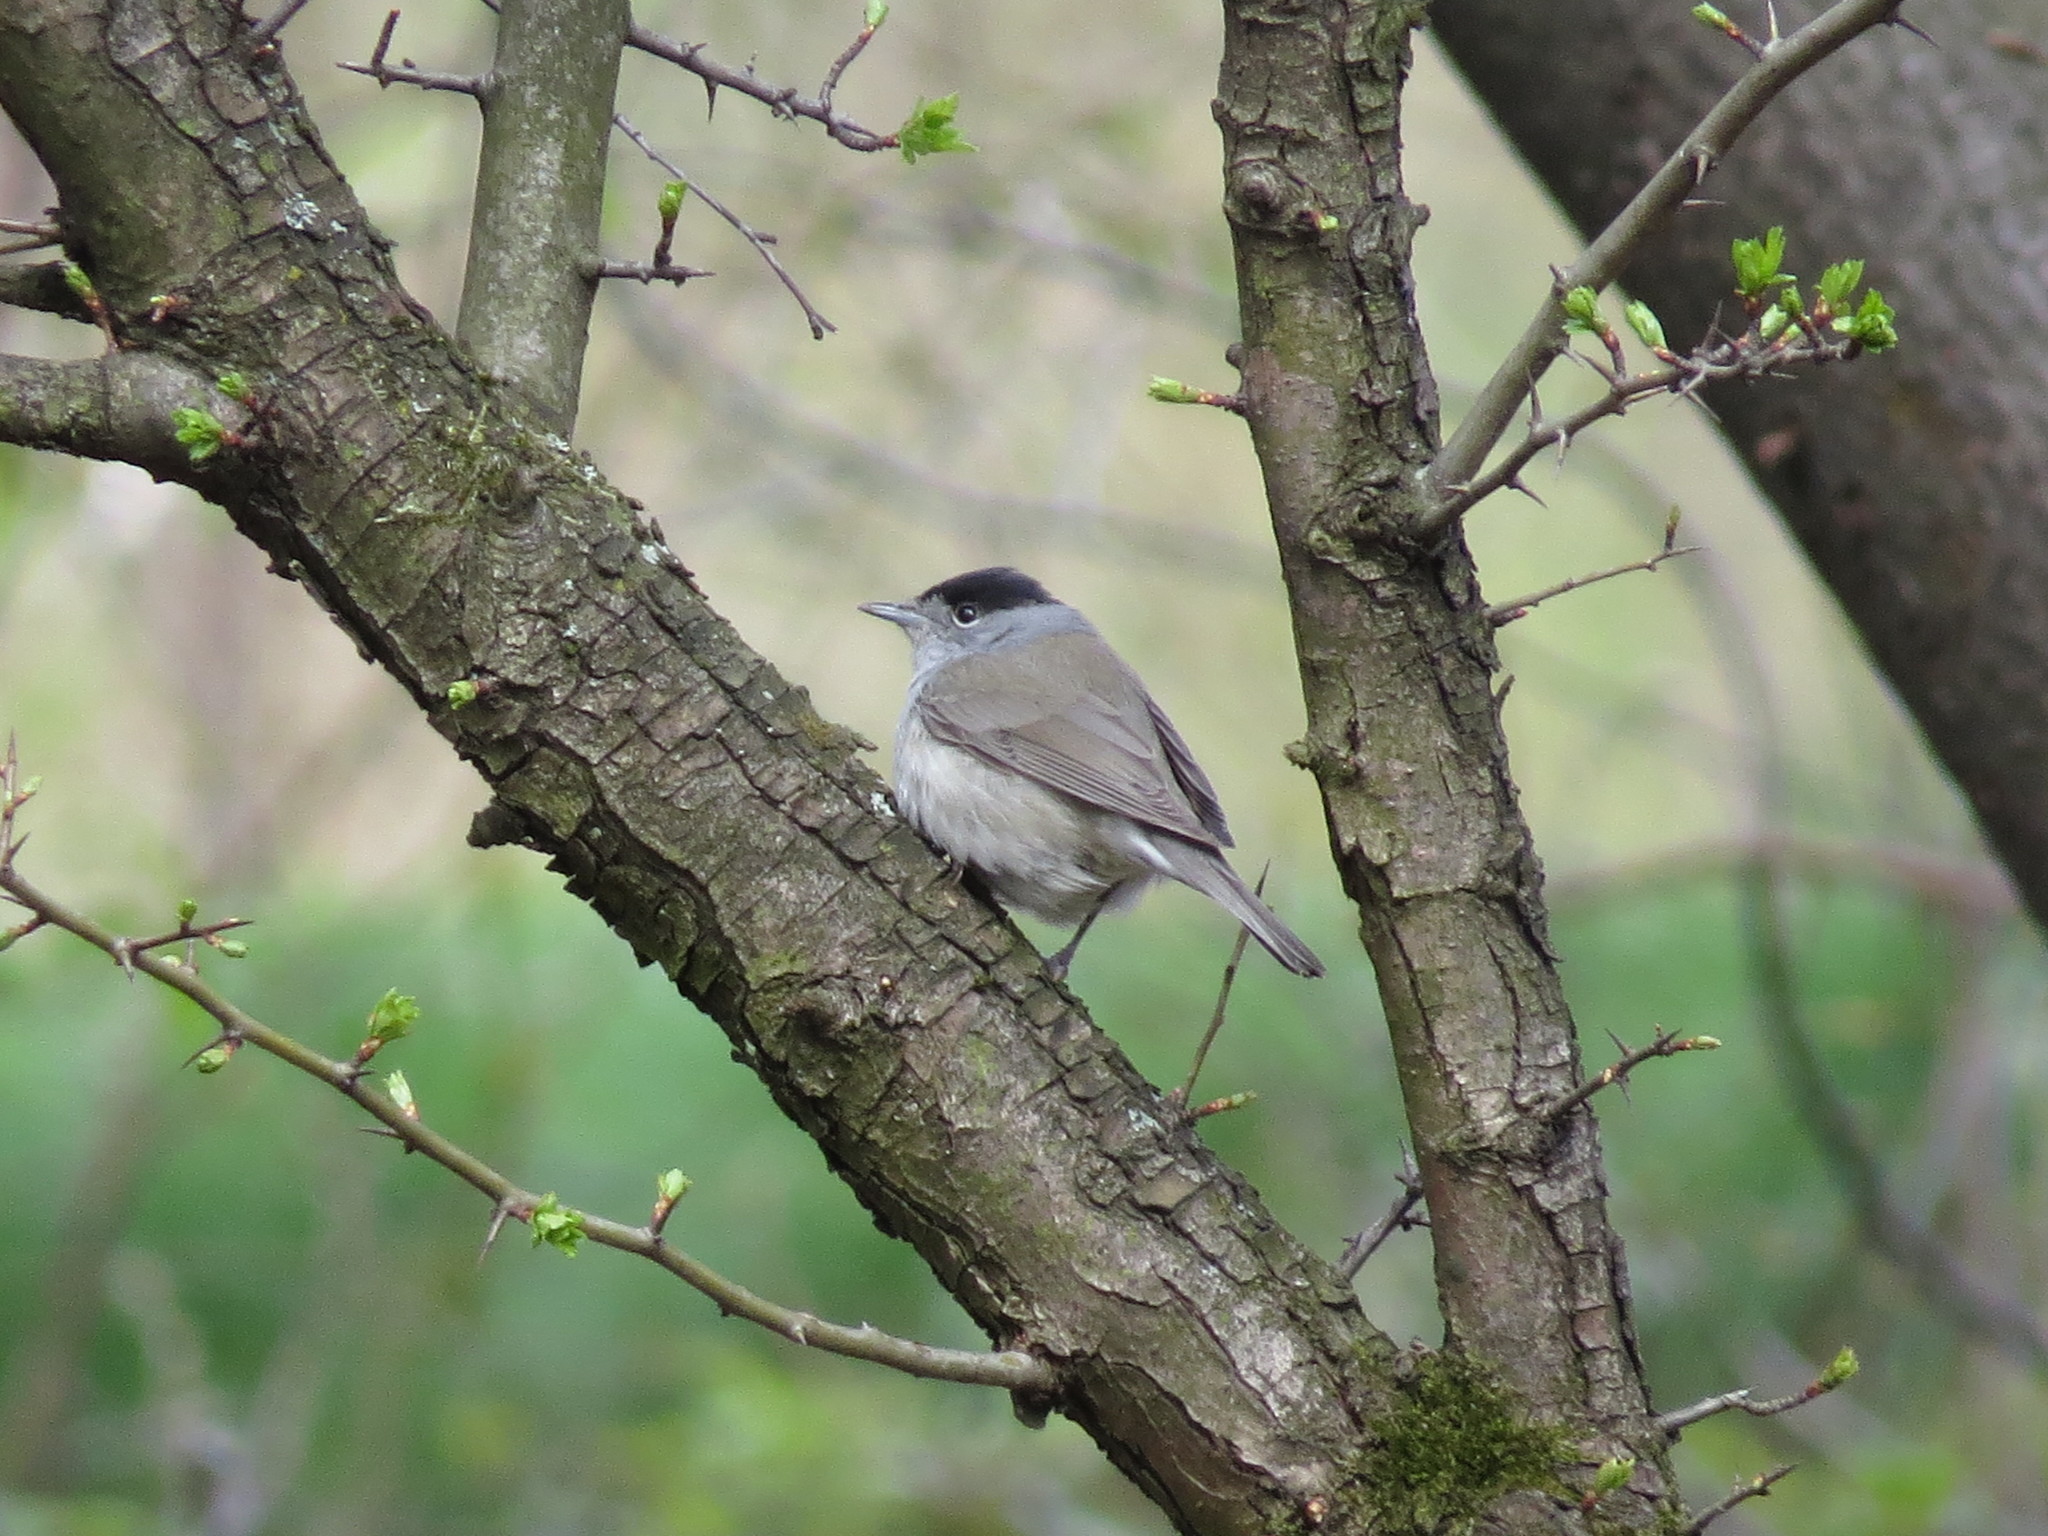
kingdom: Animalia
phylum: Chordata
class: Aves
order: Passeriformes
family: Sylviidae
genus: Sylvia
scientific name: Sylvia atricapilla
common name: Eurasian blackcap
